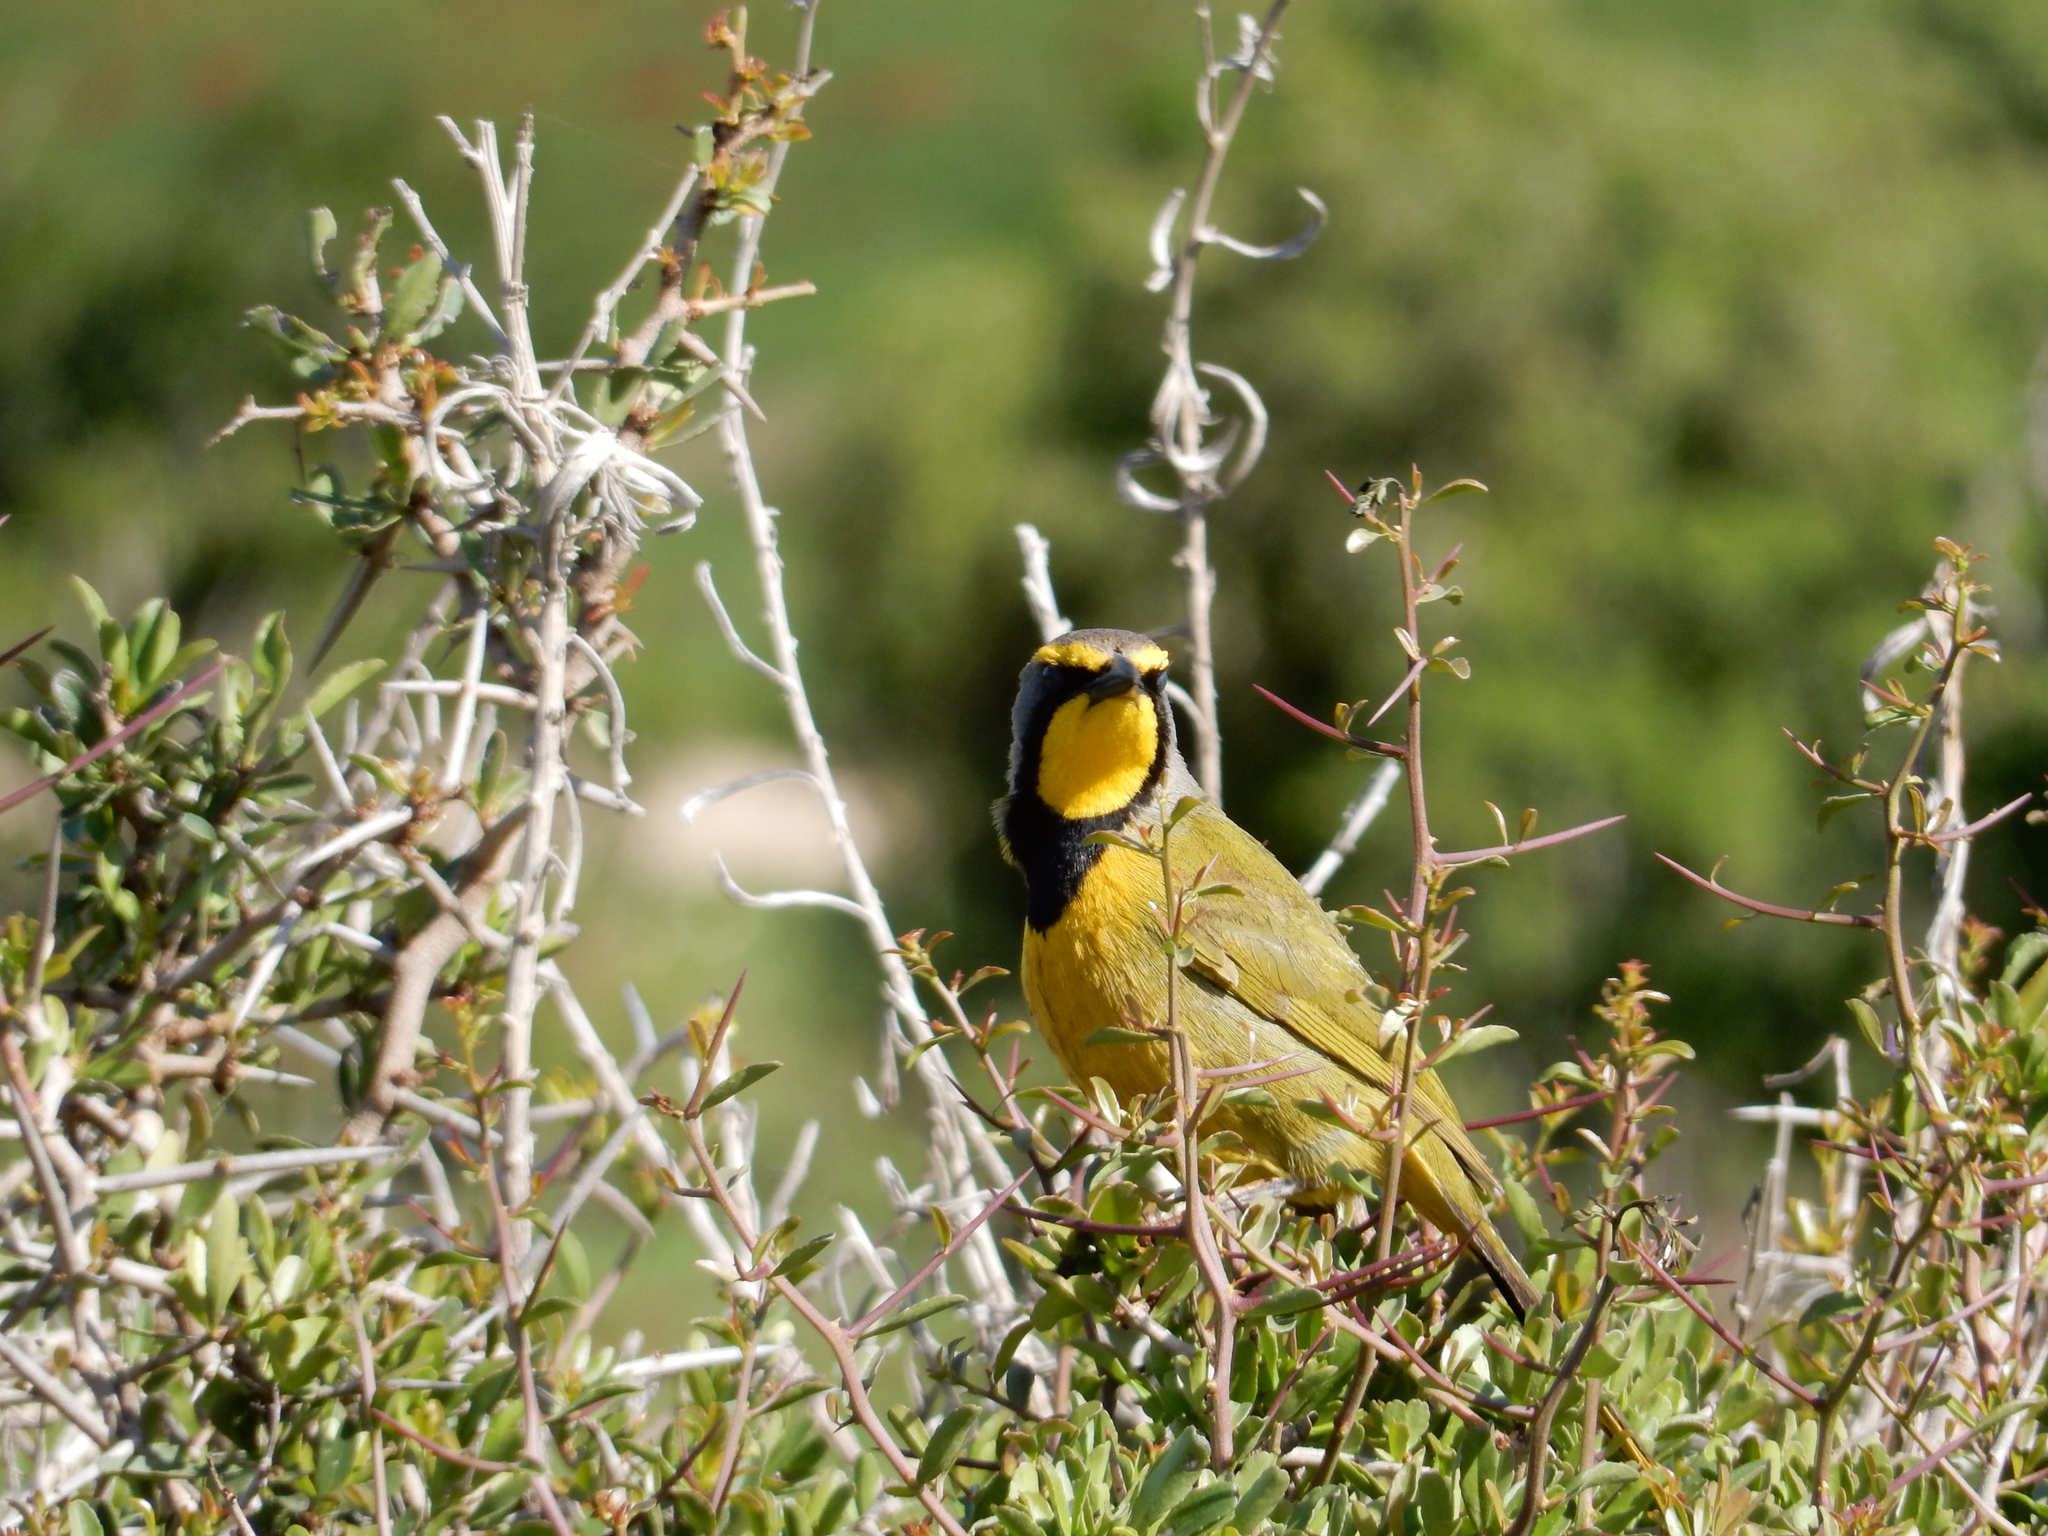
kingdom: Animalia
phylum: Chordata
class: Aves
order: Passeriformes
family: Malaconotidae
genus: Telophorus
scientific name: Telophorus zeylonus
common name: Bokmakierie
